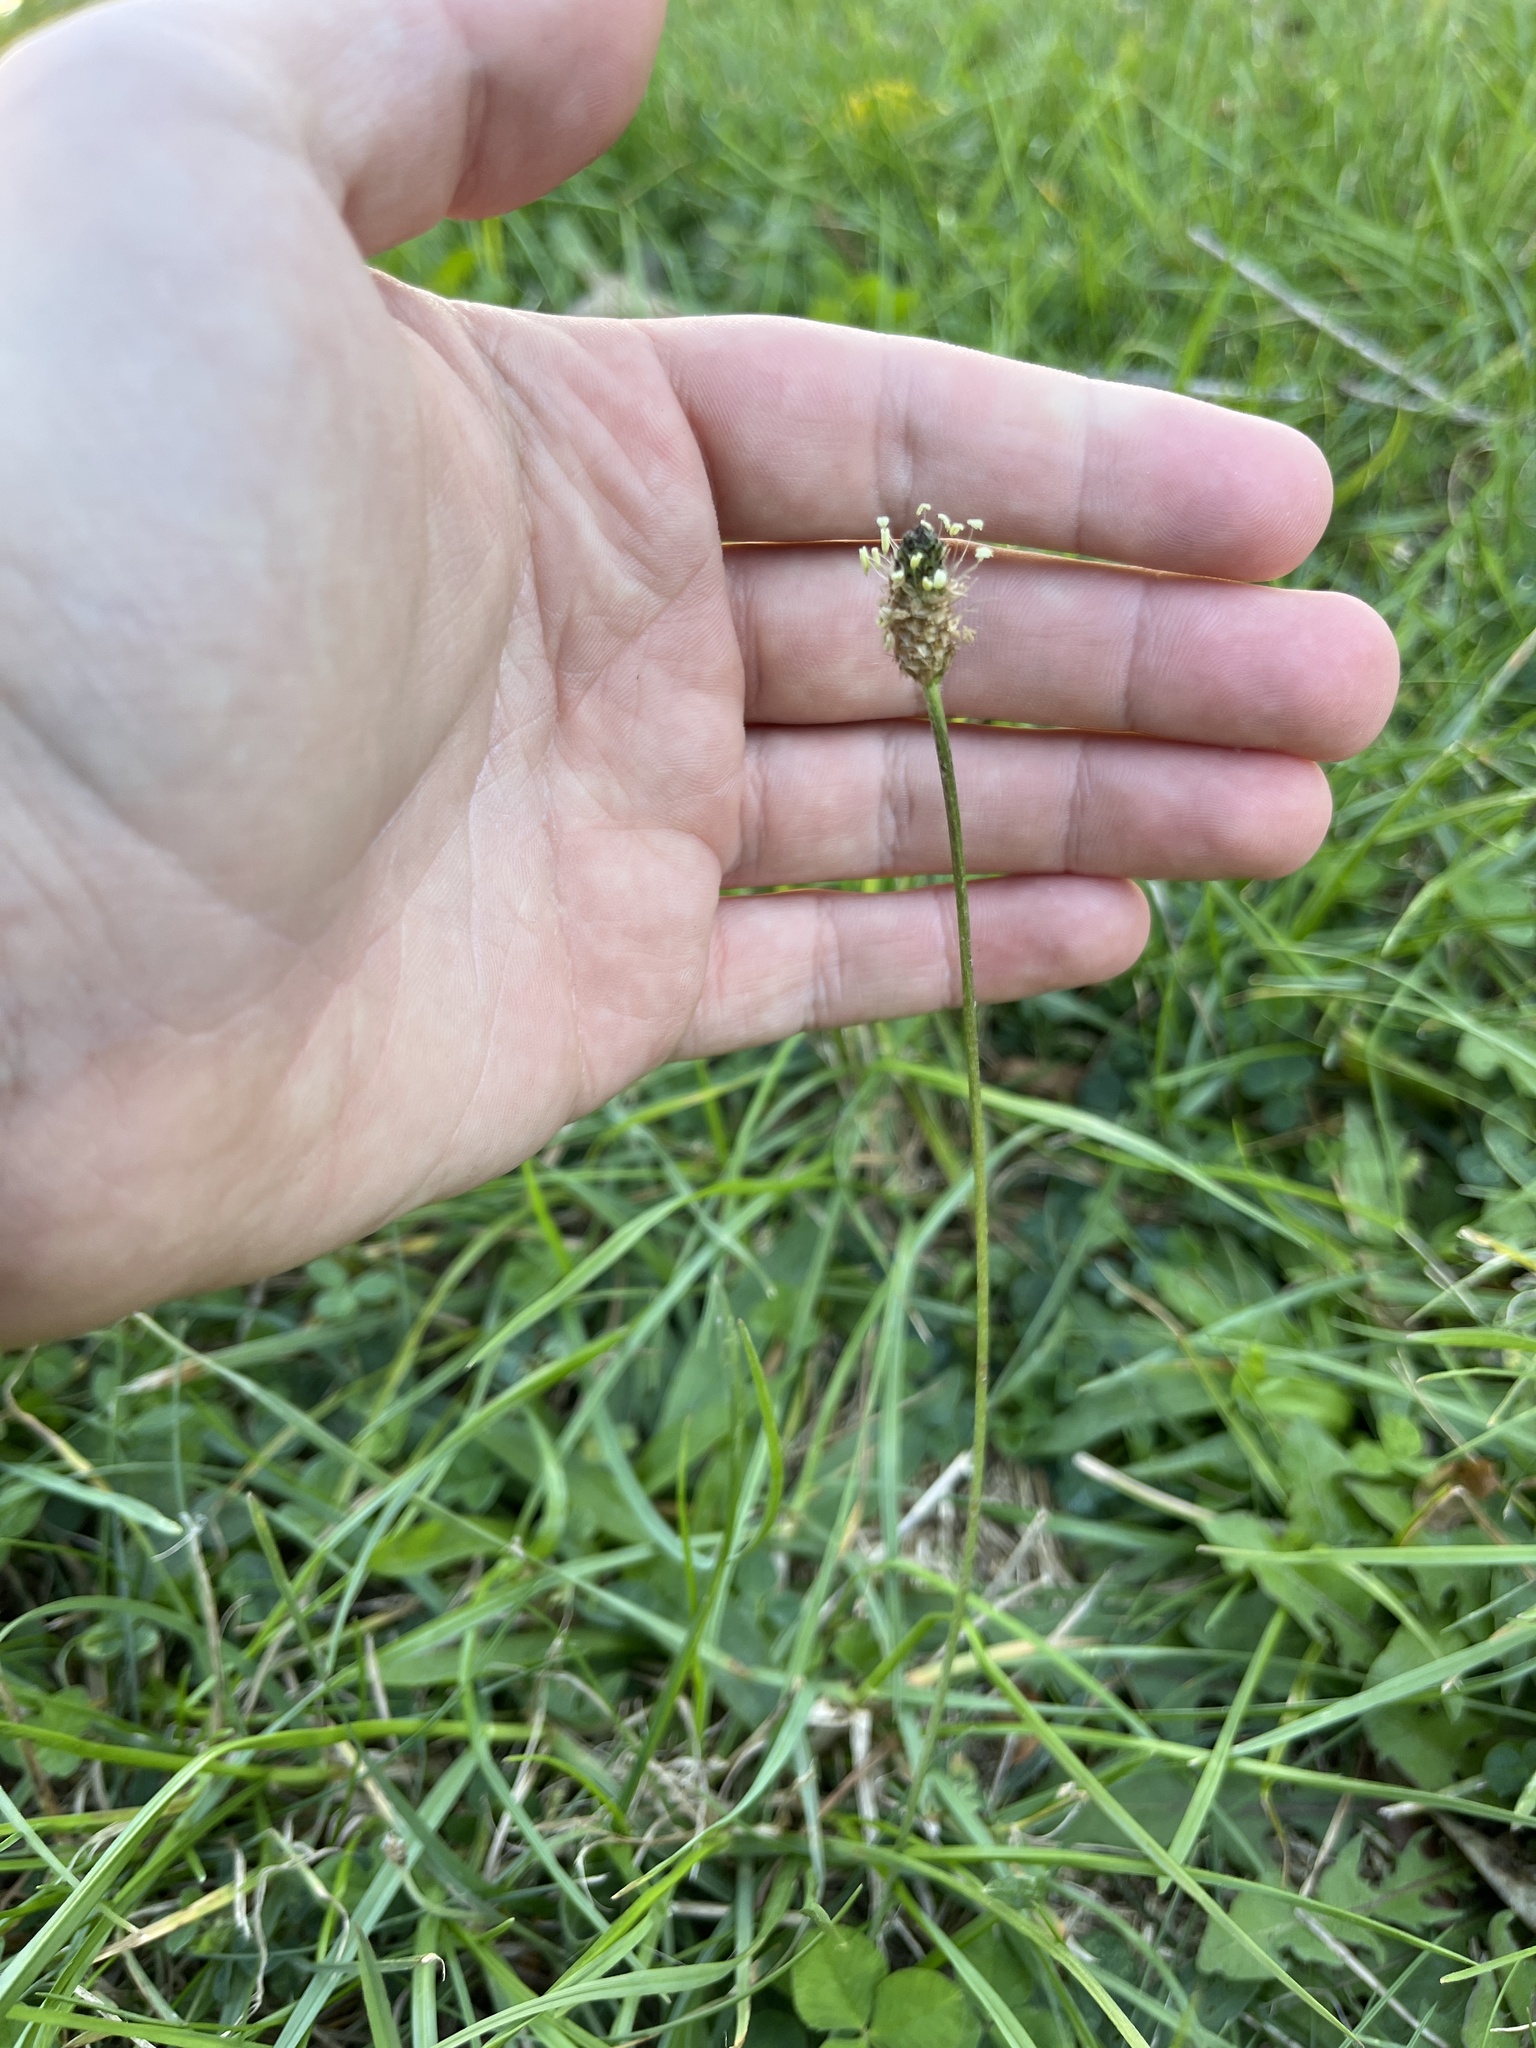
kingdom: Plantae
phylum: Tracheophyta
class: Magnoliopsida
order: Lamiales
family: Plantaginaceae
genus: Plantago
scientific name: Plantago lanceolata
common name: Ribwort plantain
